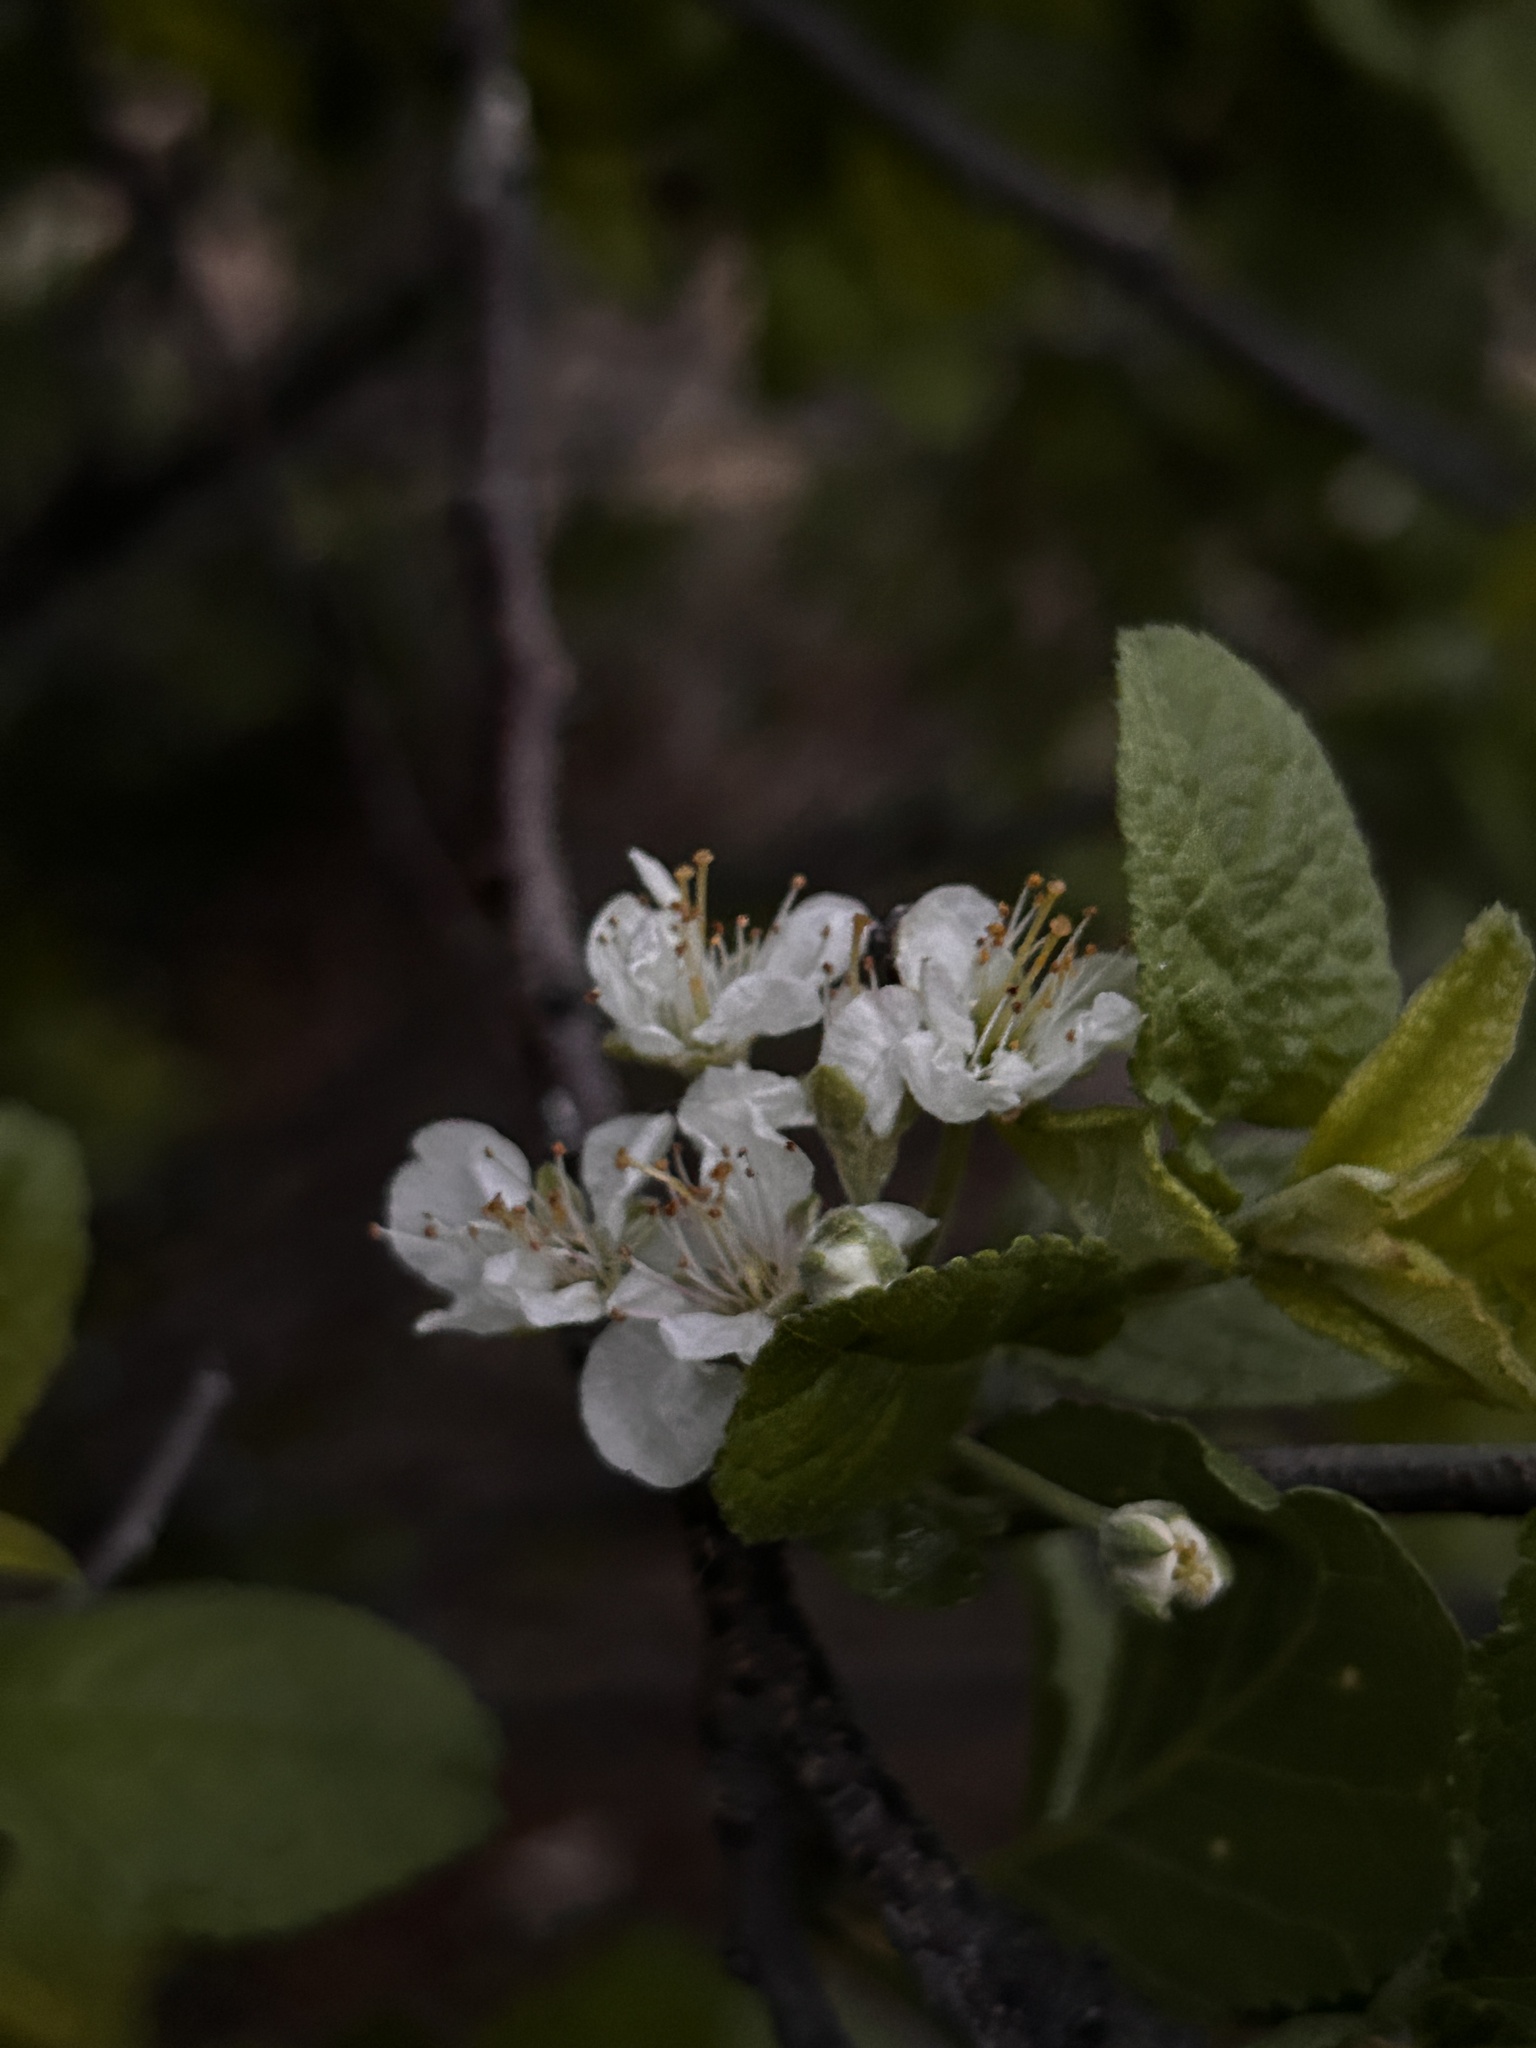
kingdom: Plantae
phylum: Tracheophyta
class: Magnoliopsida
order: Rosales
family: Rosaceae
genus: Prunus
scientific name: Prunus maritima
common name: Beach plum
